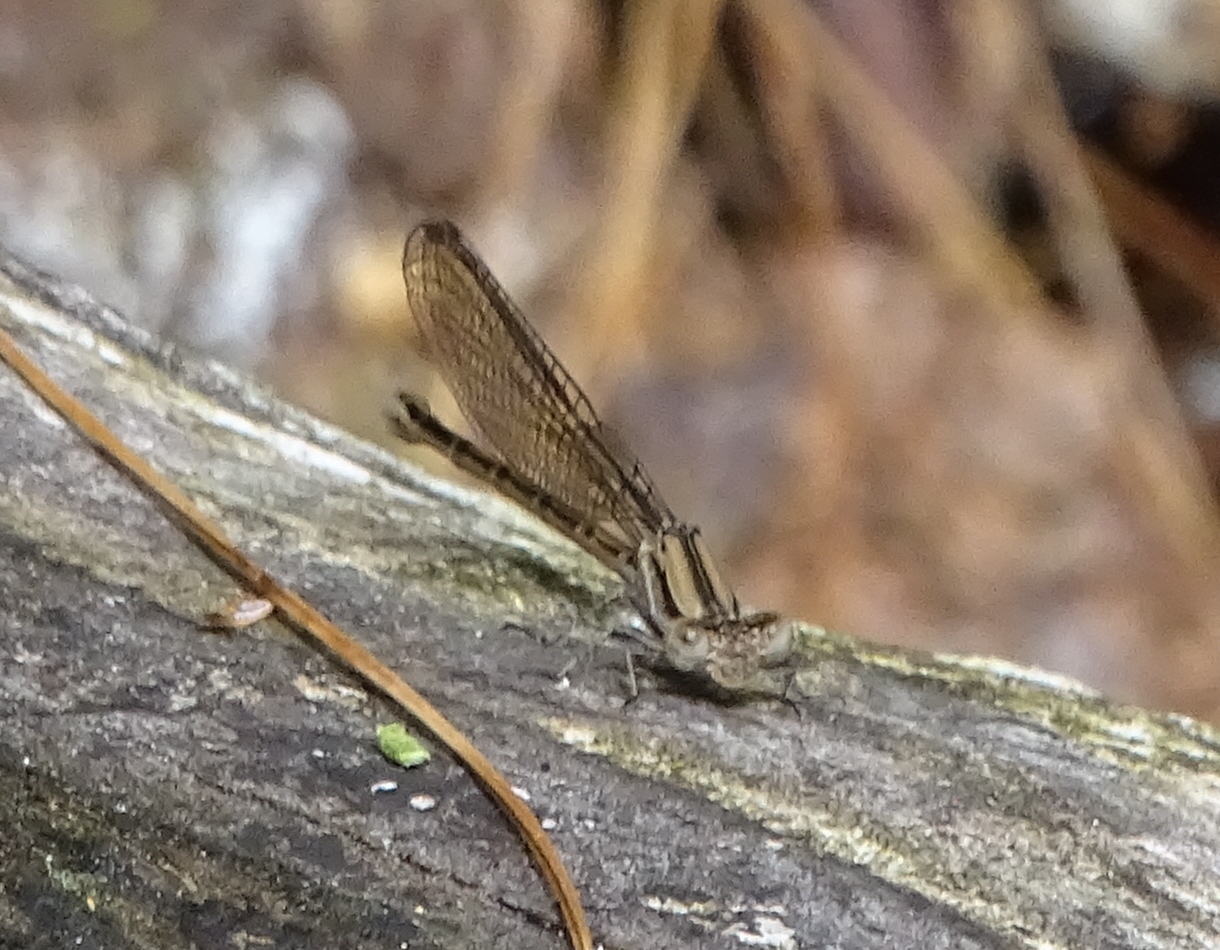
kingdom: Animalia
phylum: Arthropoda
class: Insecta
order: Odonata
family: Coenagrionidae
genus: Argia
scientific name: Argia fumipennis
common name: Variable dancer
